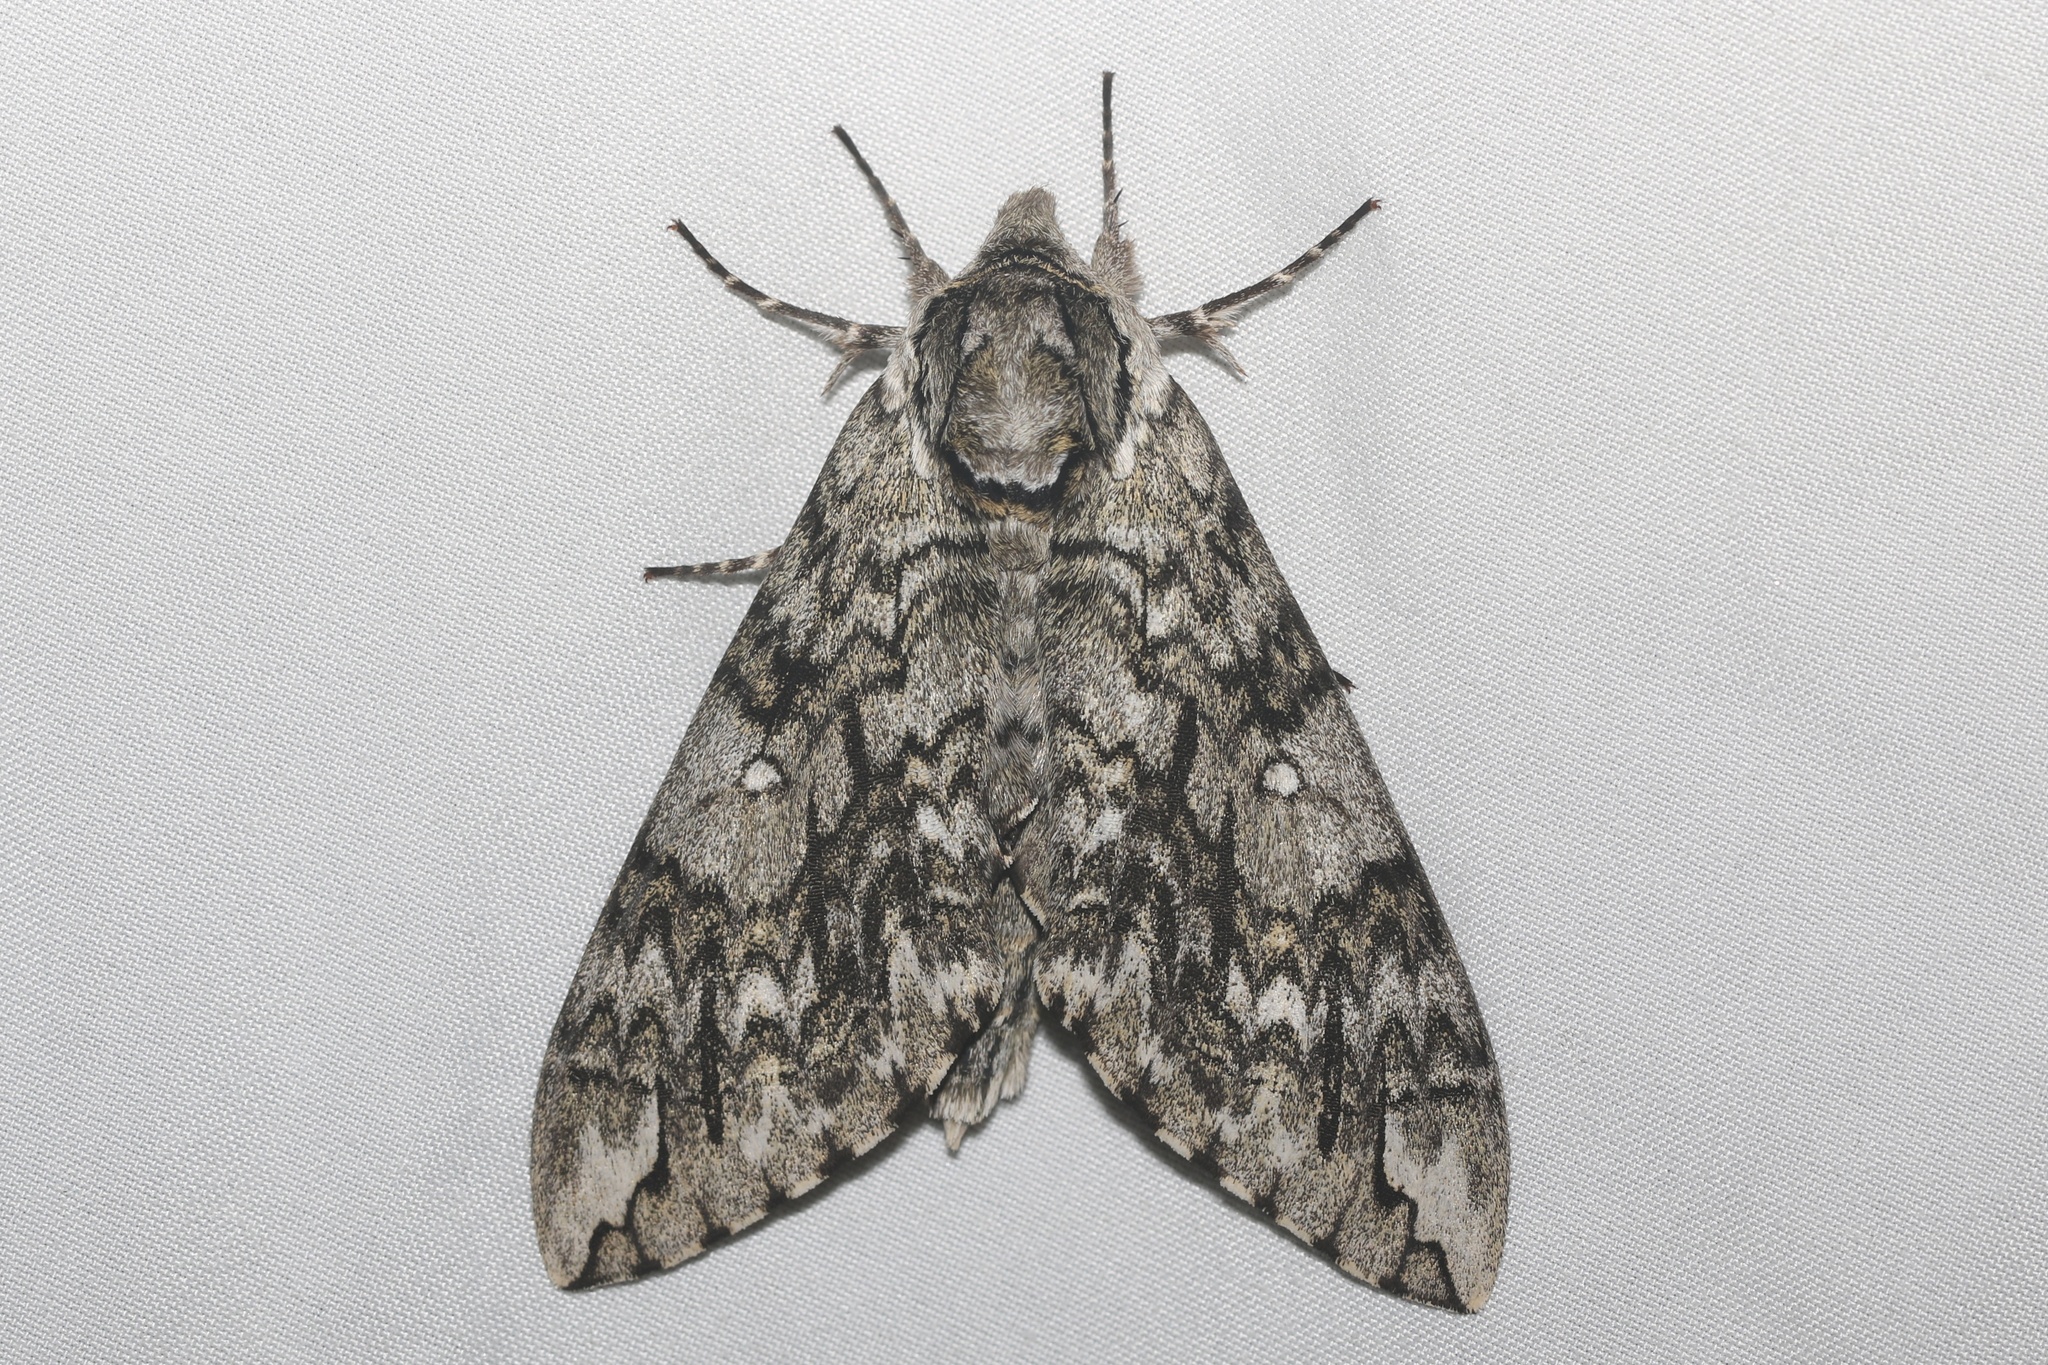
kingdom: Animalia
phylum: Arthropoda
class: Insecta
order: Lepidoptera
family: Sphingidae
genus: Ceratomia
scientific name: Ceratomia undulosa
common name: Waved sphinx
